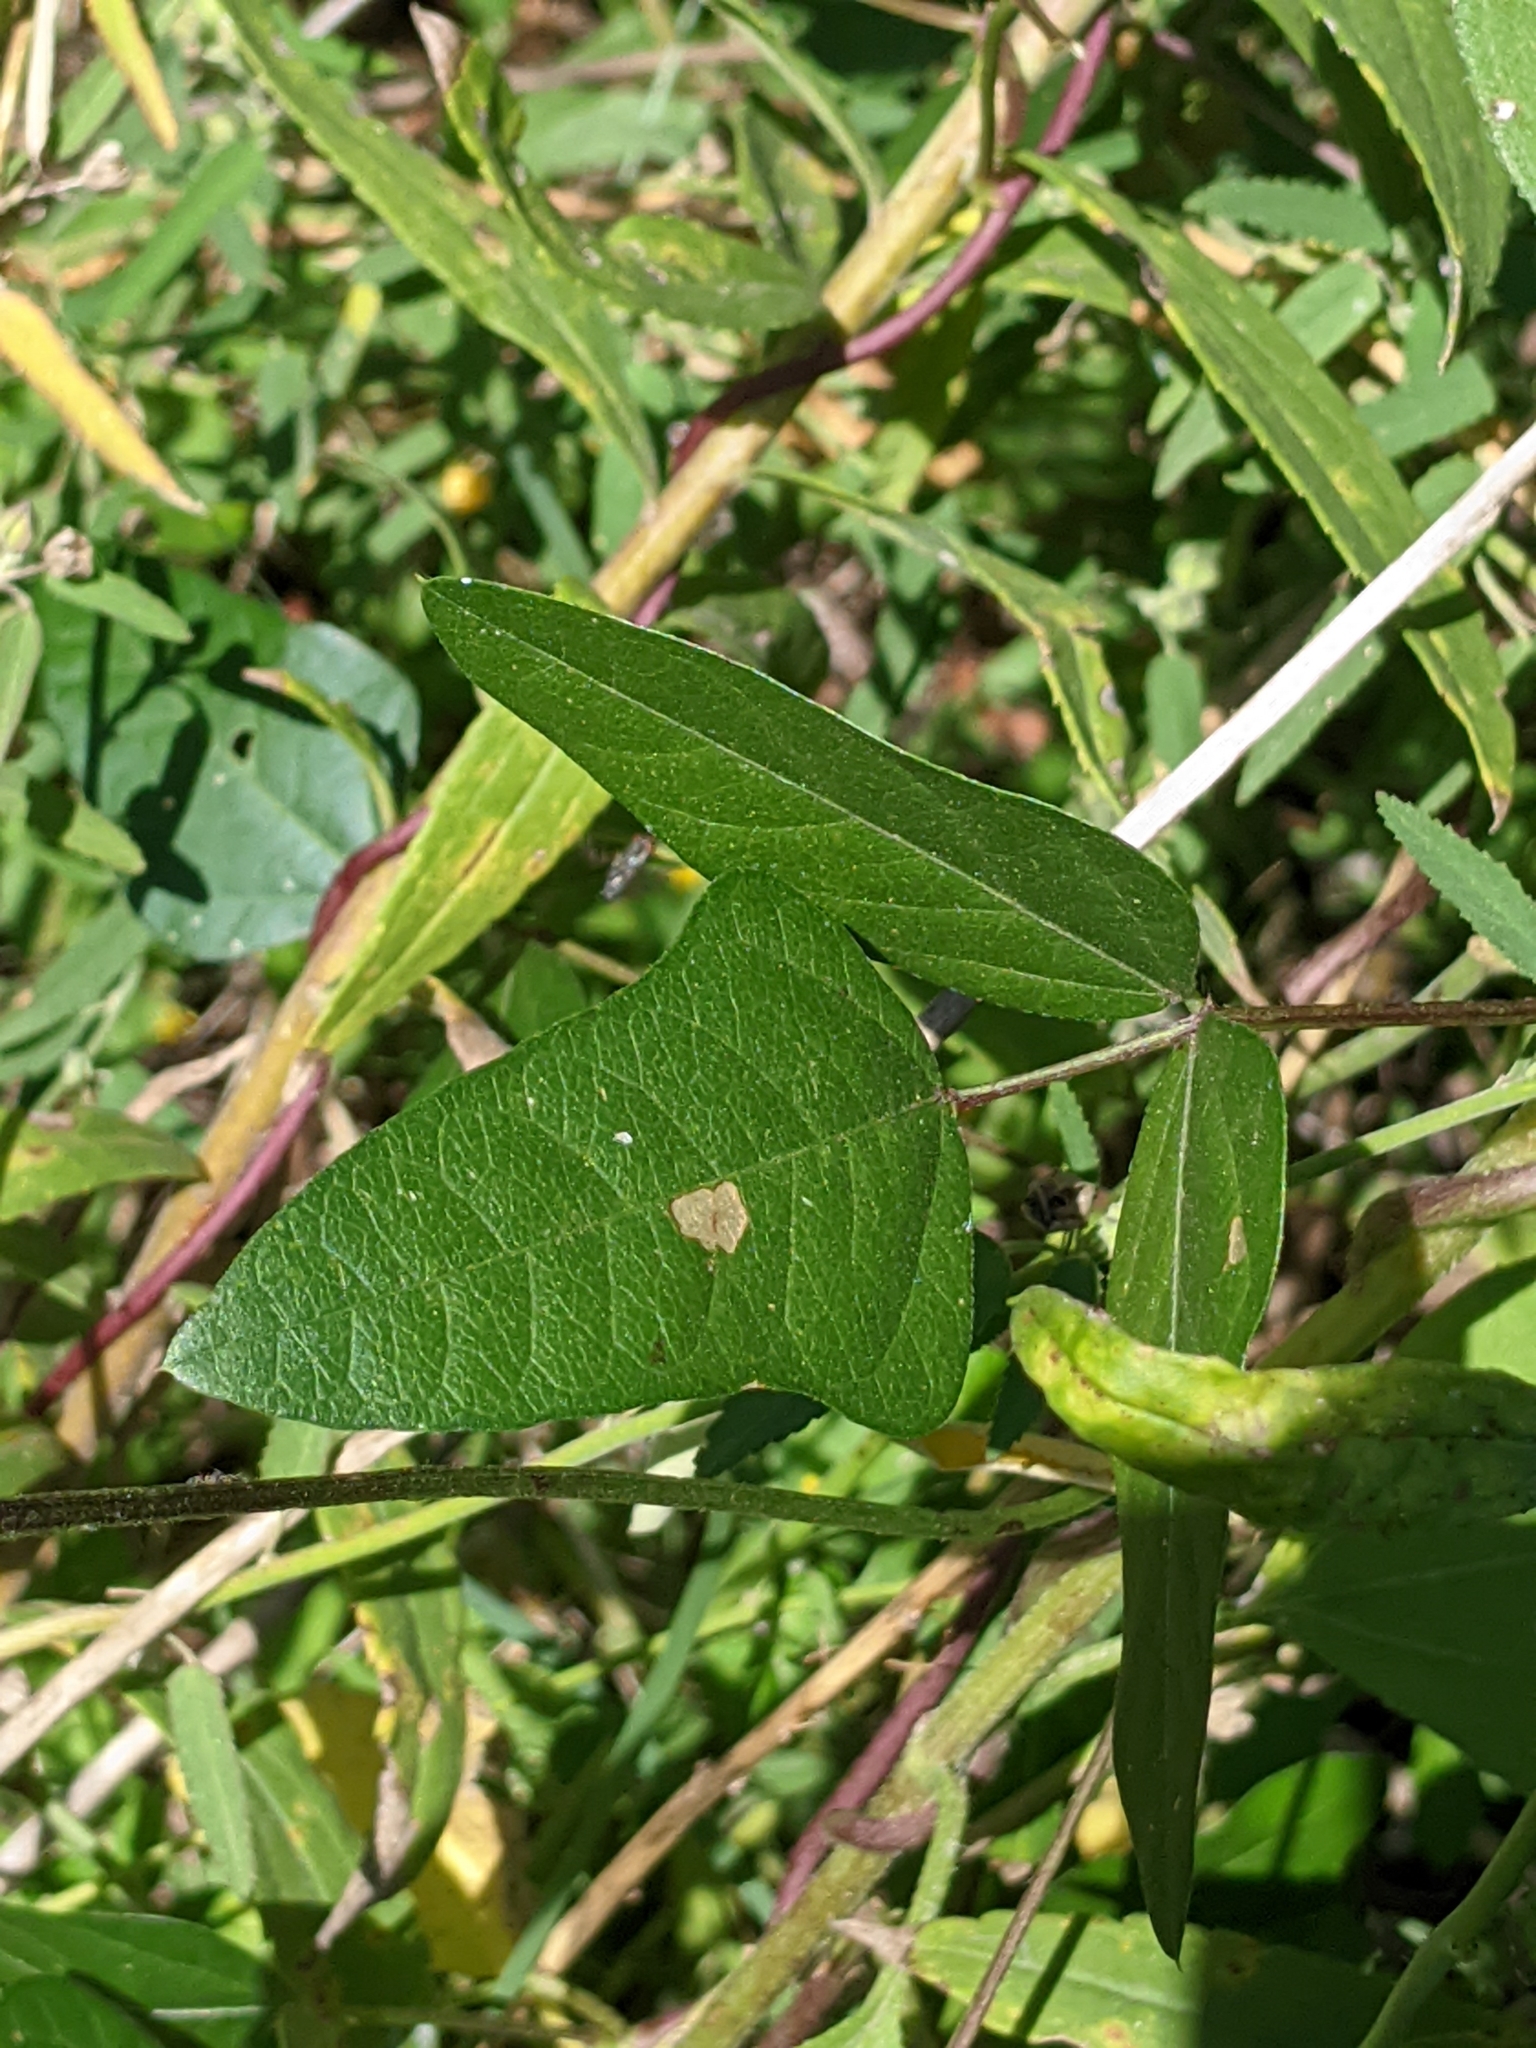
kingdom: Plantae
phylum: Tracheophyta
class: Magnoliopsida
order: Fabales
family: Fabaceae
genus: Strophostyles
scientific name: Strophostyles helvola
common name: Trailing wild bean
